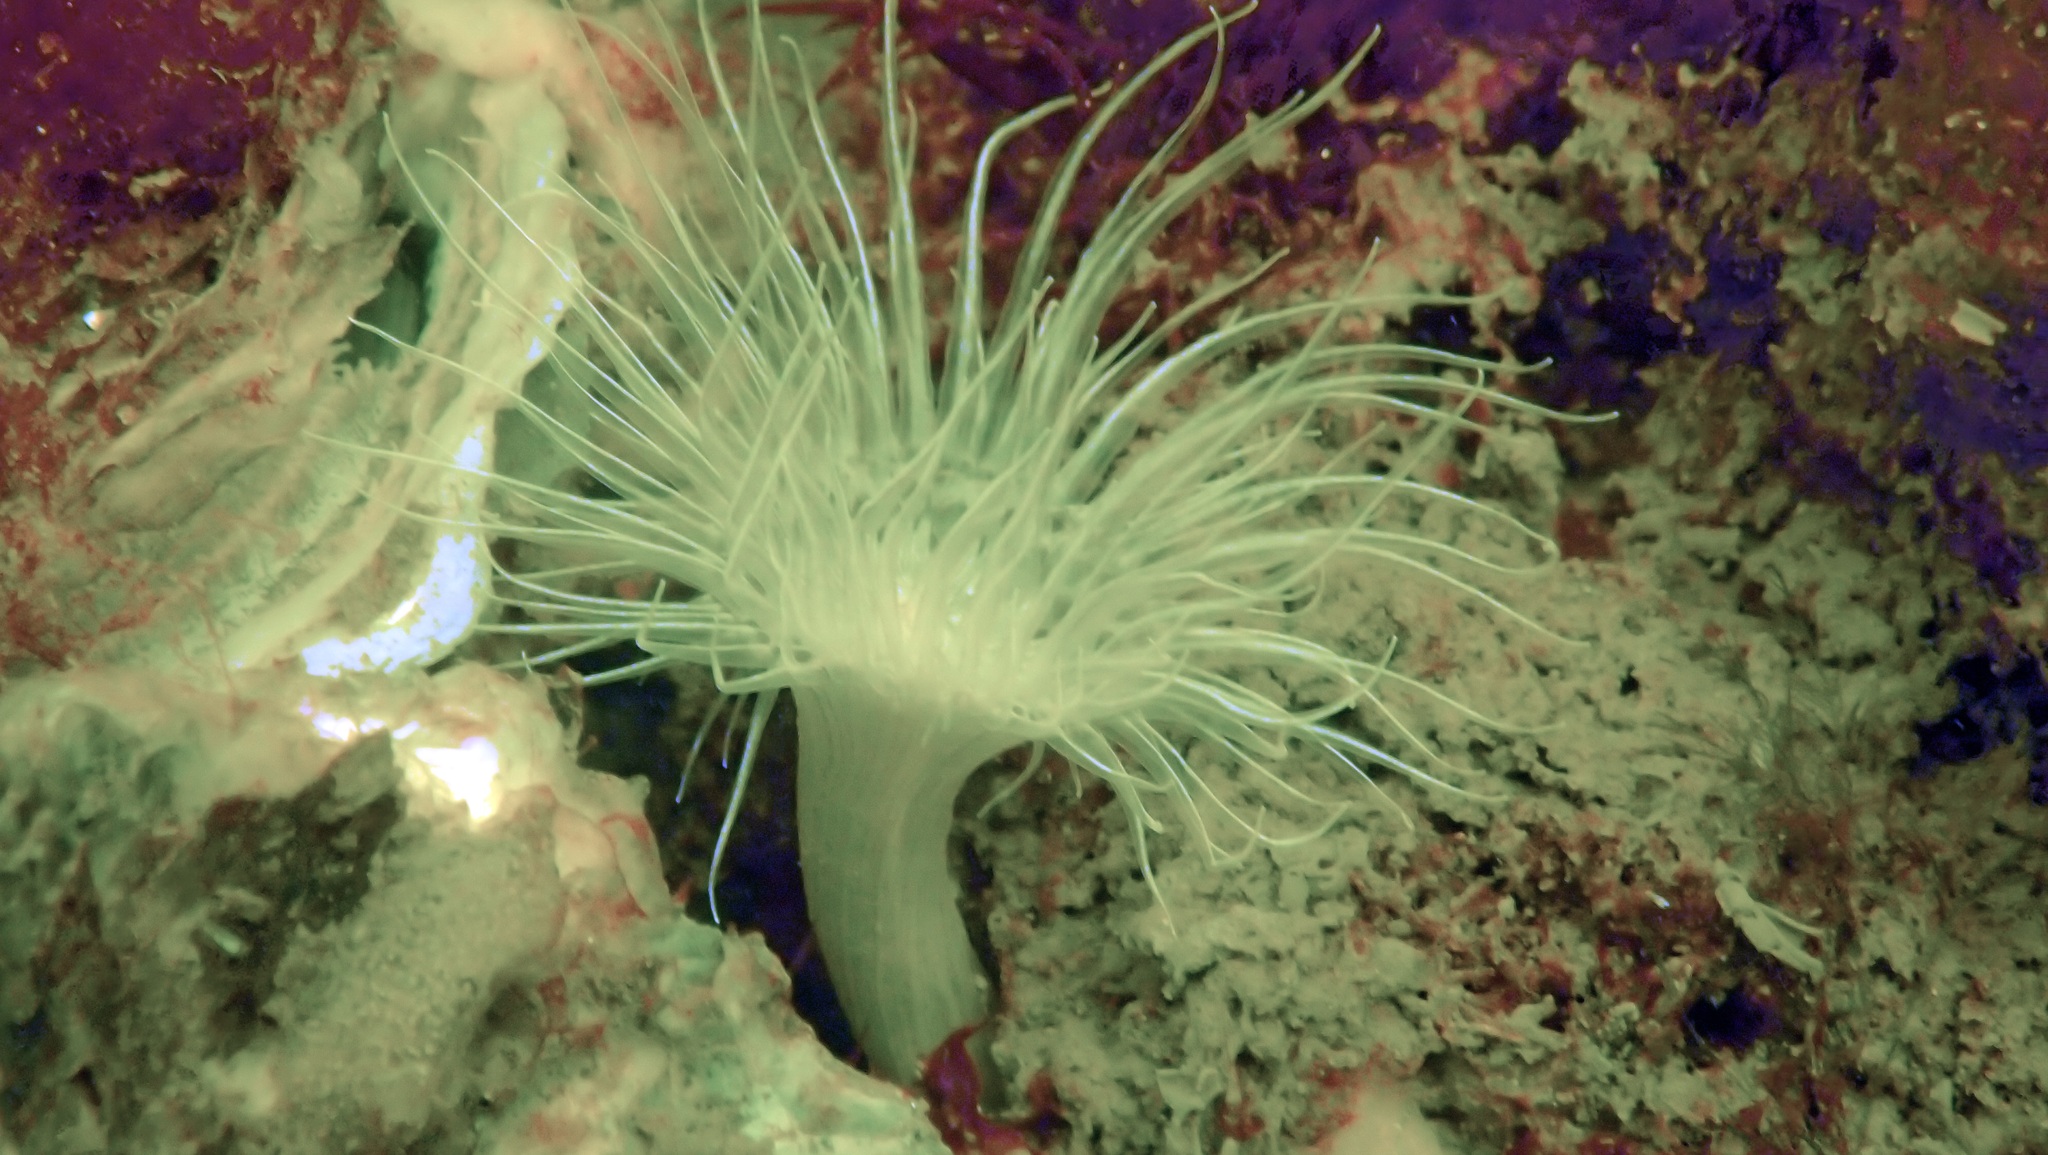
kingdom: Animalia
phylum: Cnidaria
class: Anthozoa
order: Actiniaria
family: Sagartiidae
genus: Sagartia
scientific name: Sagartia undata
